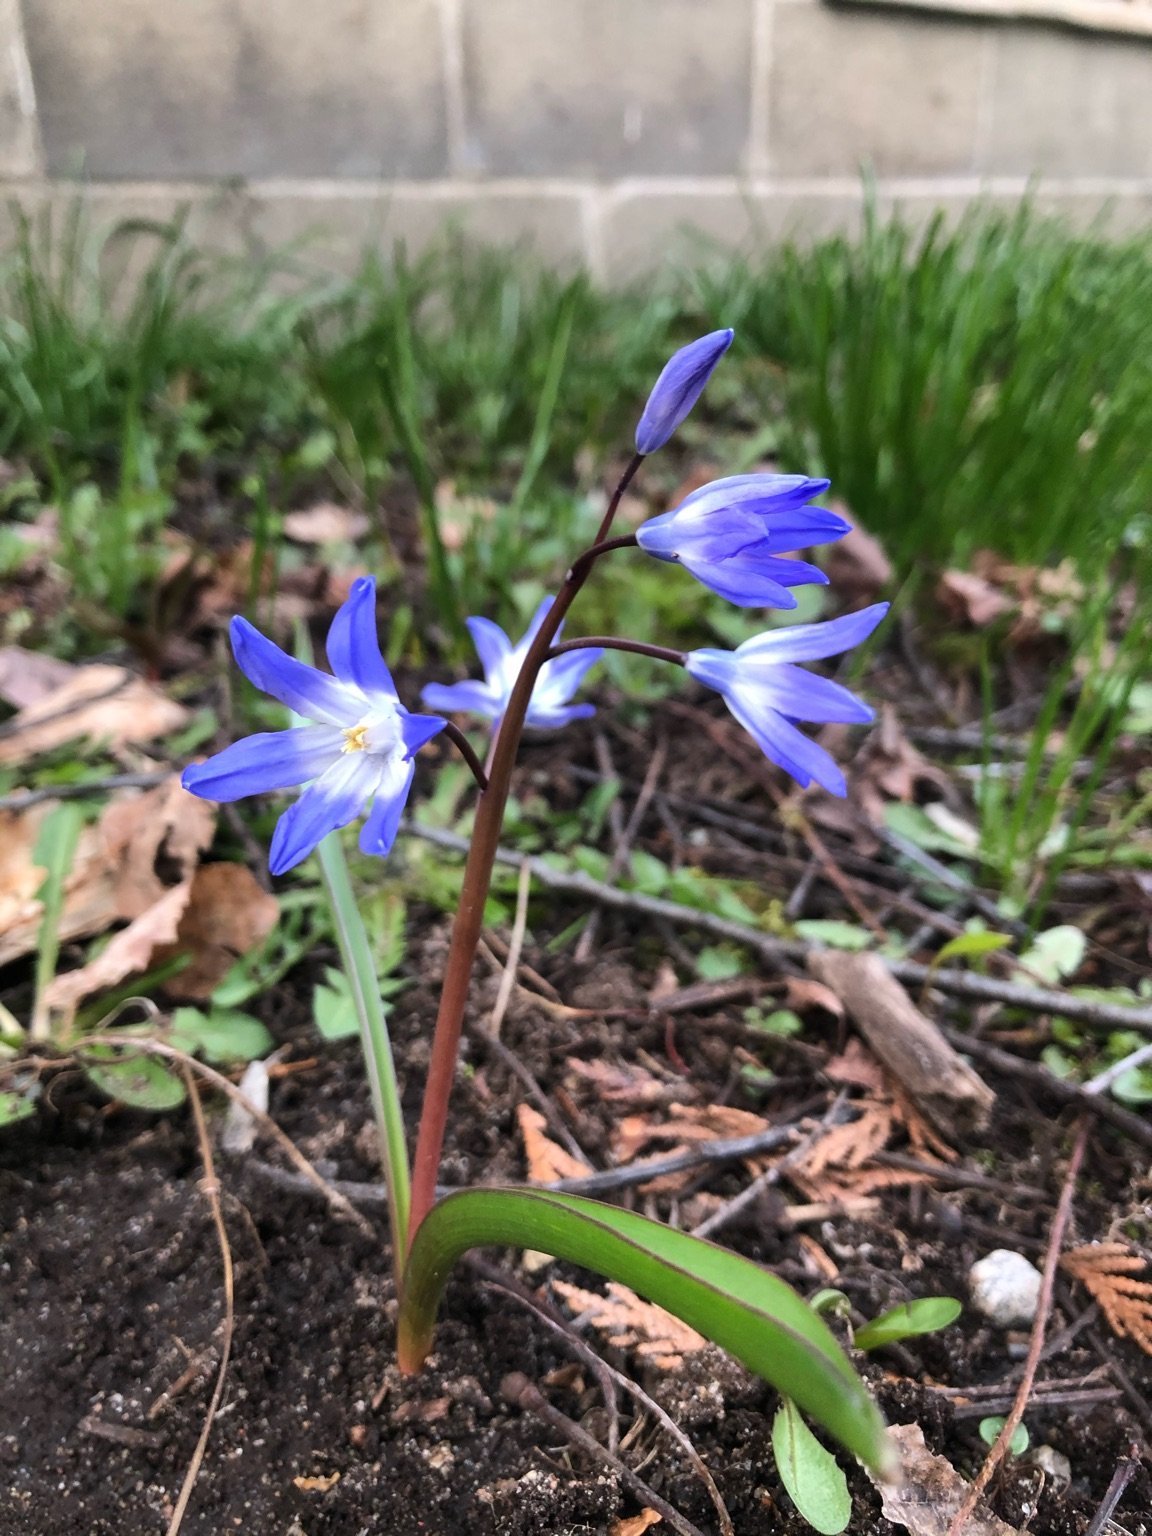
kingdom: Plantae
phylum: Tracheophyta
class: Liliopsida
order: Asparagales
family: Asparagaceae
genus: Scilla
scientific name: Scilla forbesii
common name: Glory-of-the-snow
